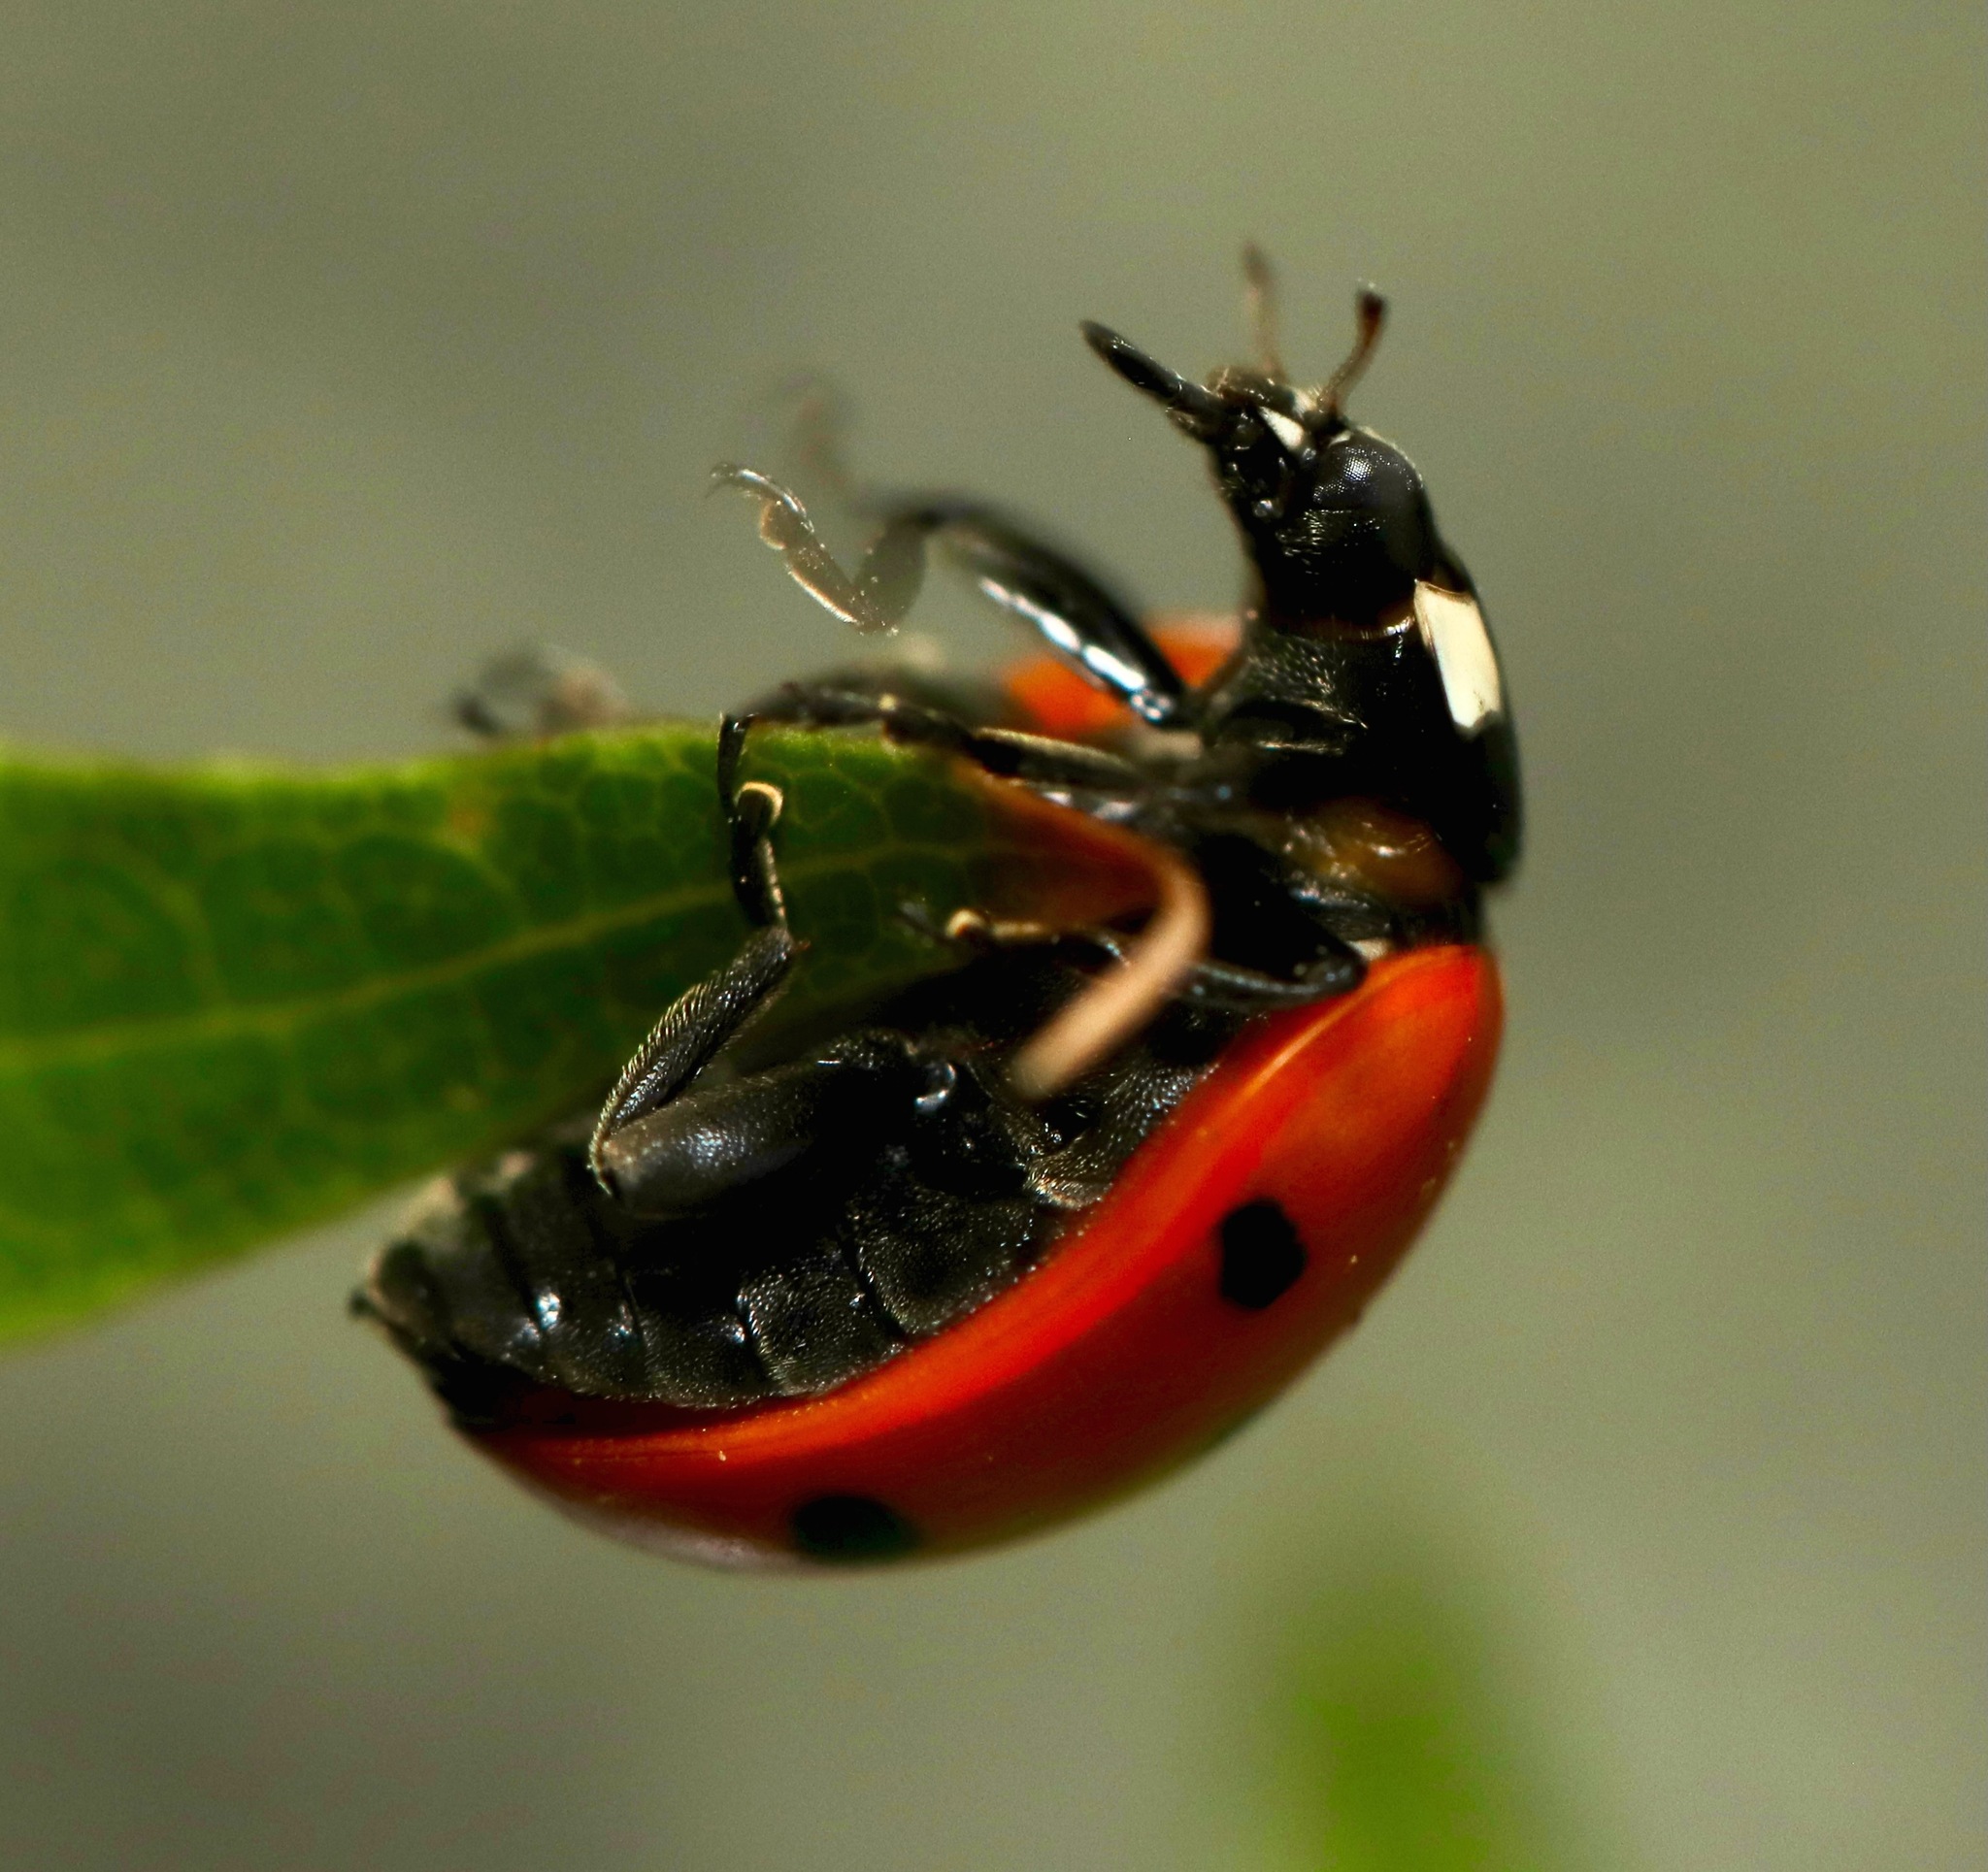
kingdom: Animalia
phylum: Arthropoda
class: Insecta
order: Coleoptera
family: Coccinellidae
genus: Coccinella
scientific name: Coccinella septempunctata
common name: Sevenspotted lady beetle
